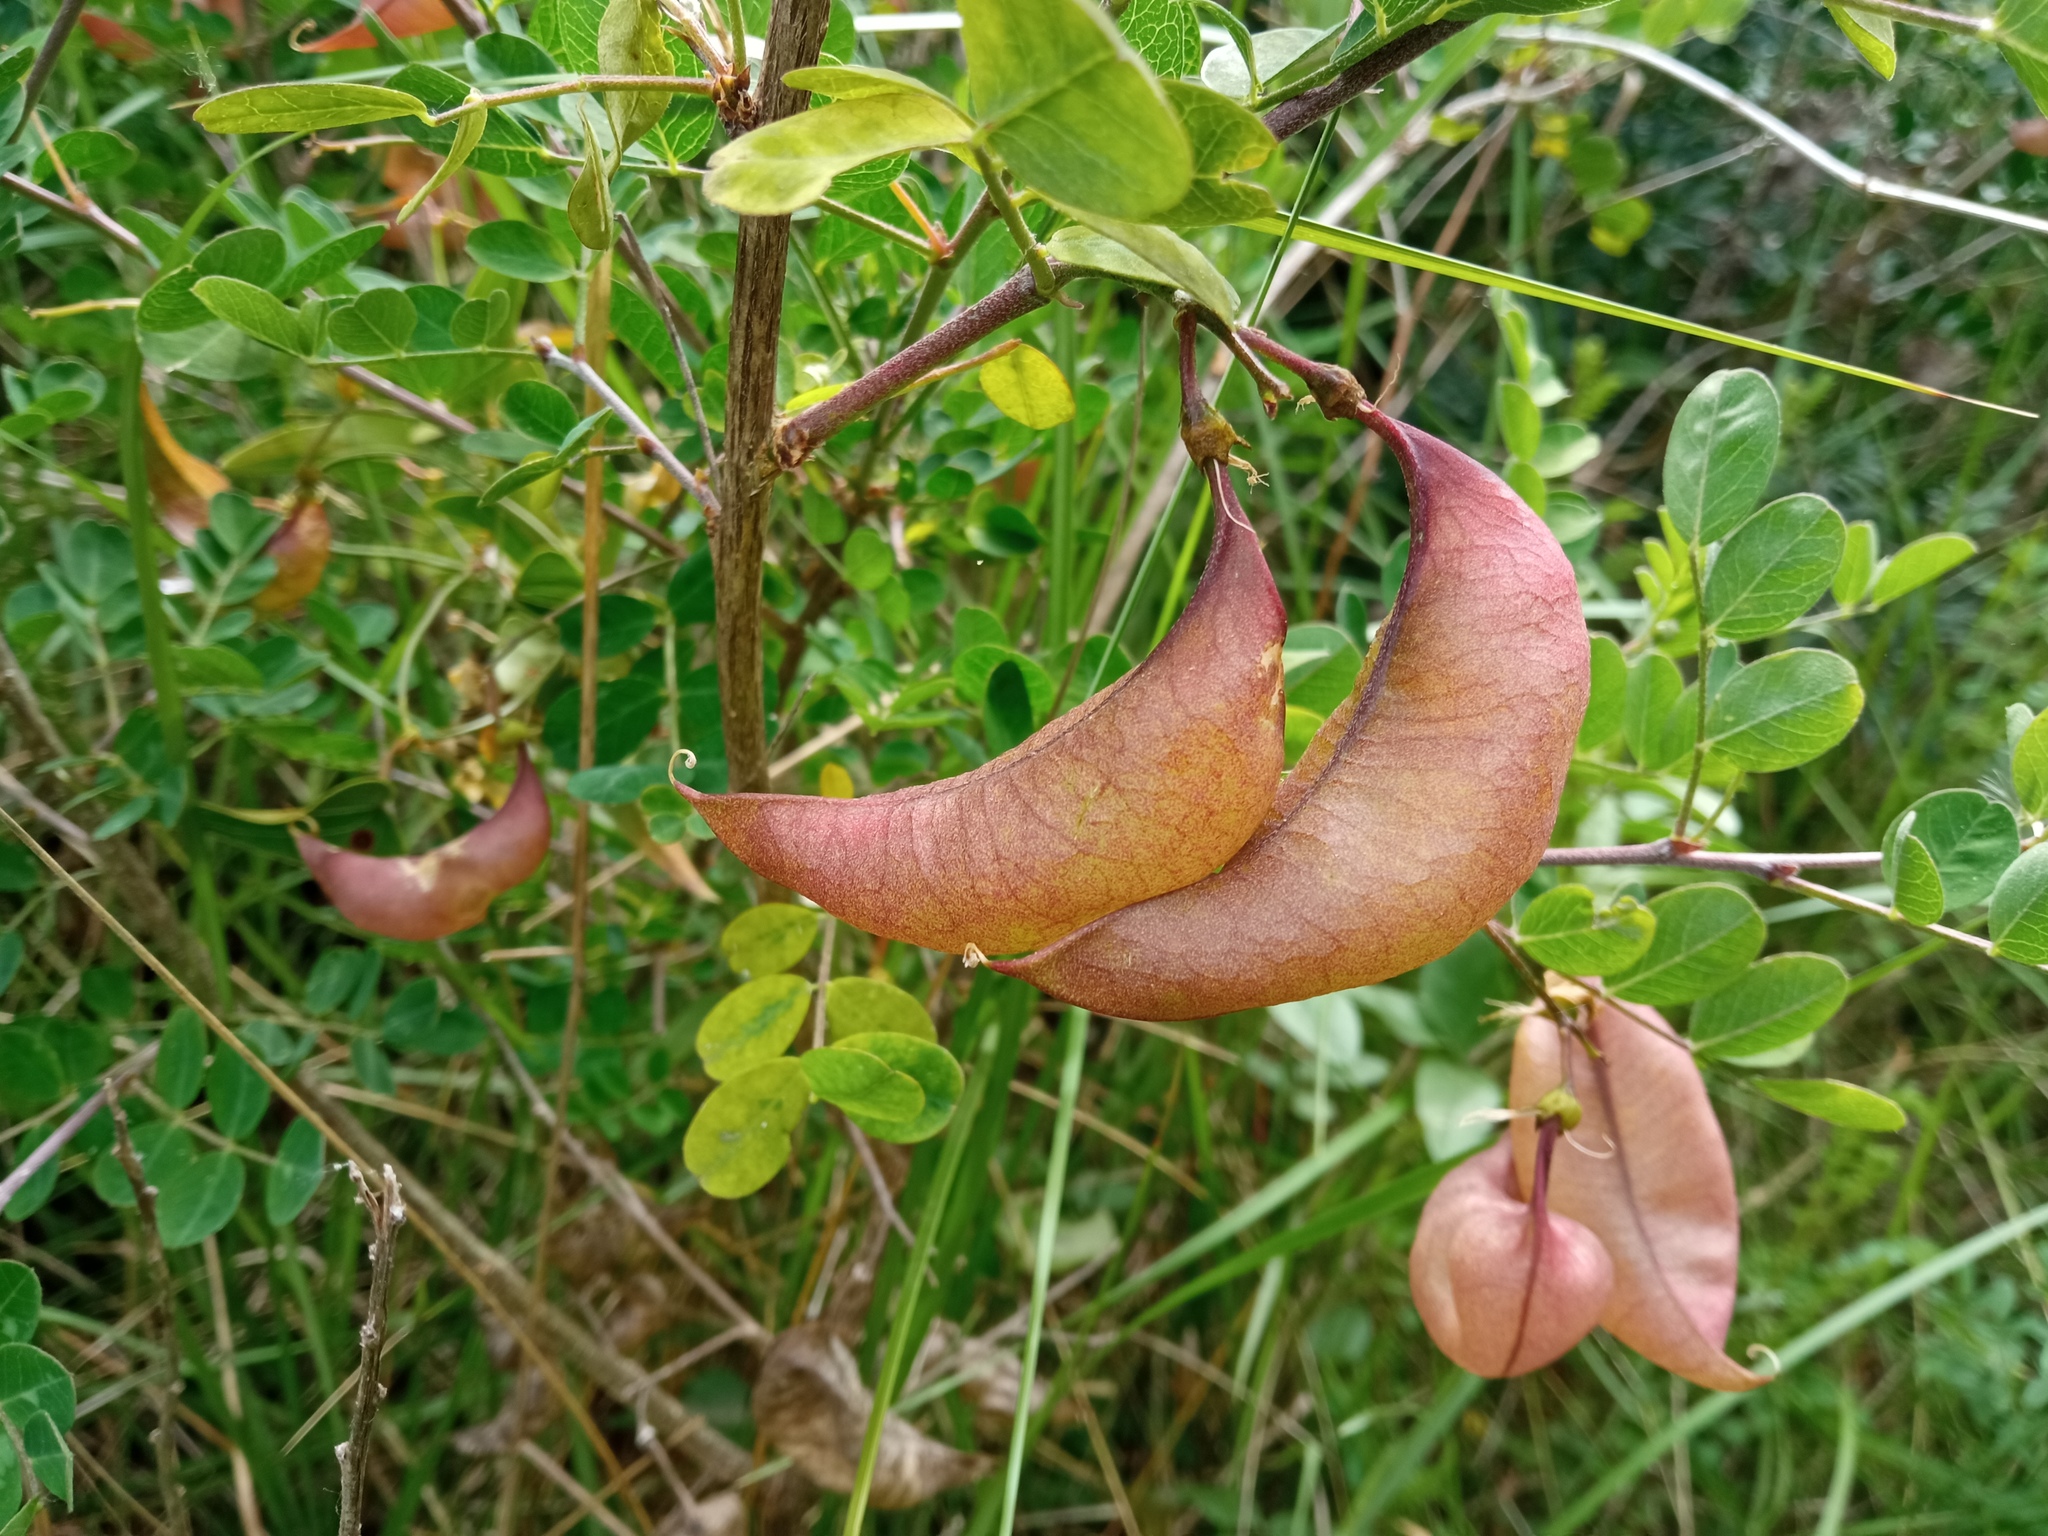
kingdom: Plantae
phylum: Tracheophyta
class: Magnoliopsida
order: Fabales
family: Fabaceae
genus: Colutea
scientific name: Colutea brevialata
